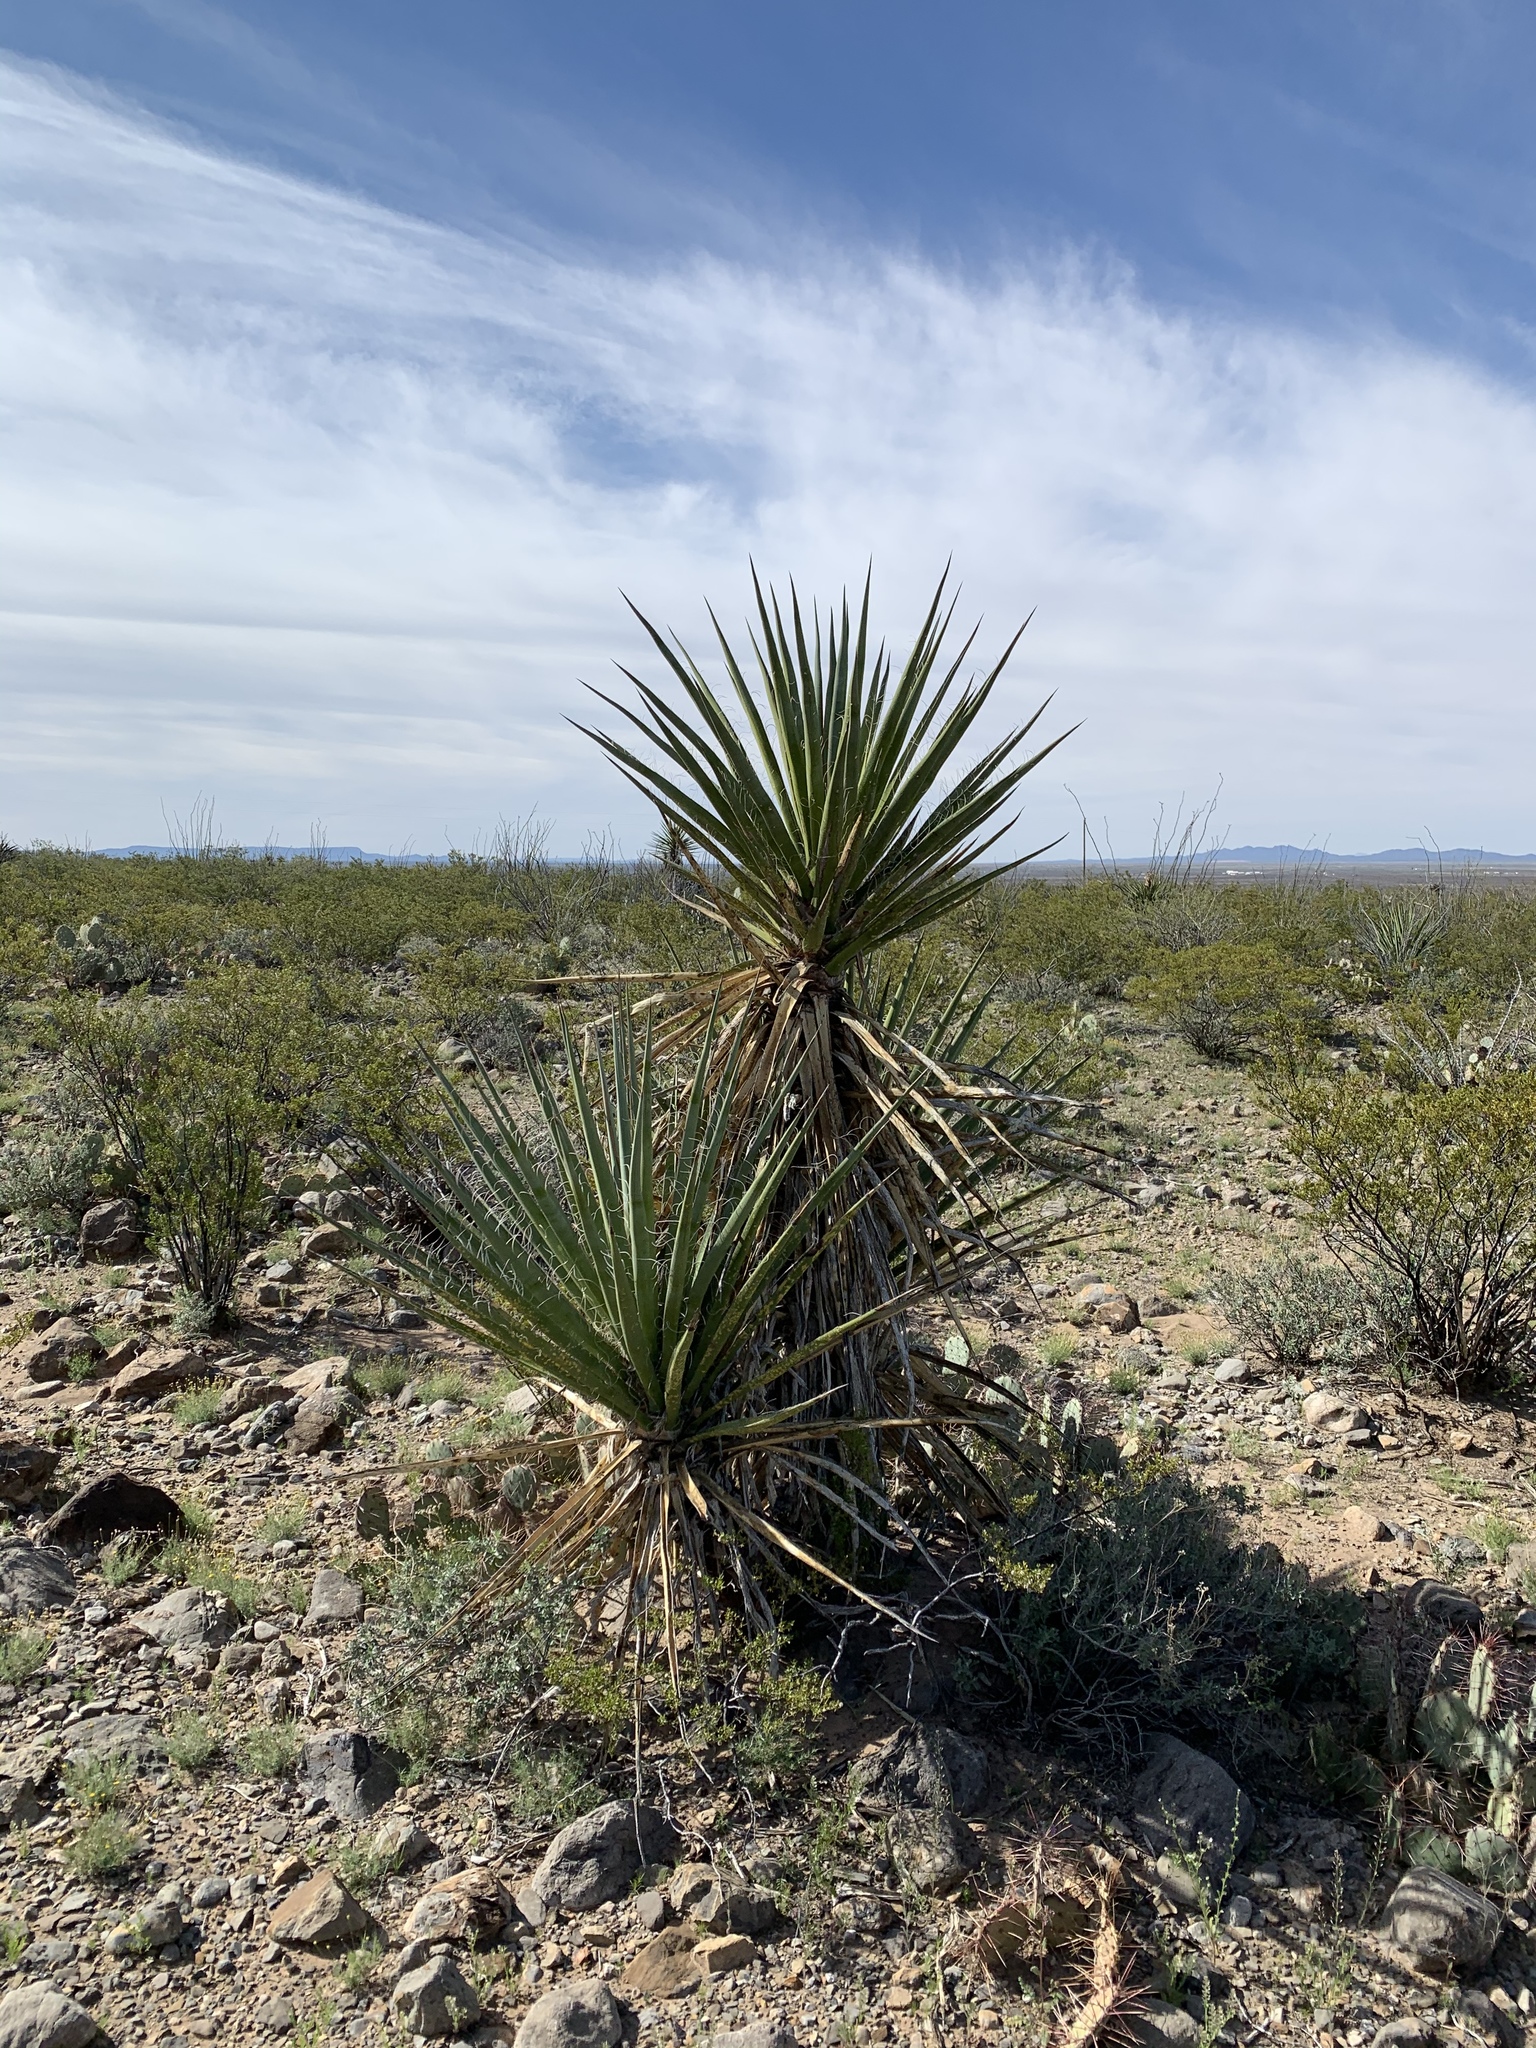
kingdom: Plantae
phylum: Tracheophyta
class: Liliopsida
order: Asparagales
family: Asparagaceae
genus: Yucca
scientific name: Yucca treculiana
